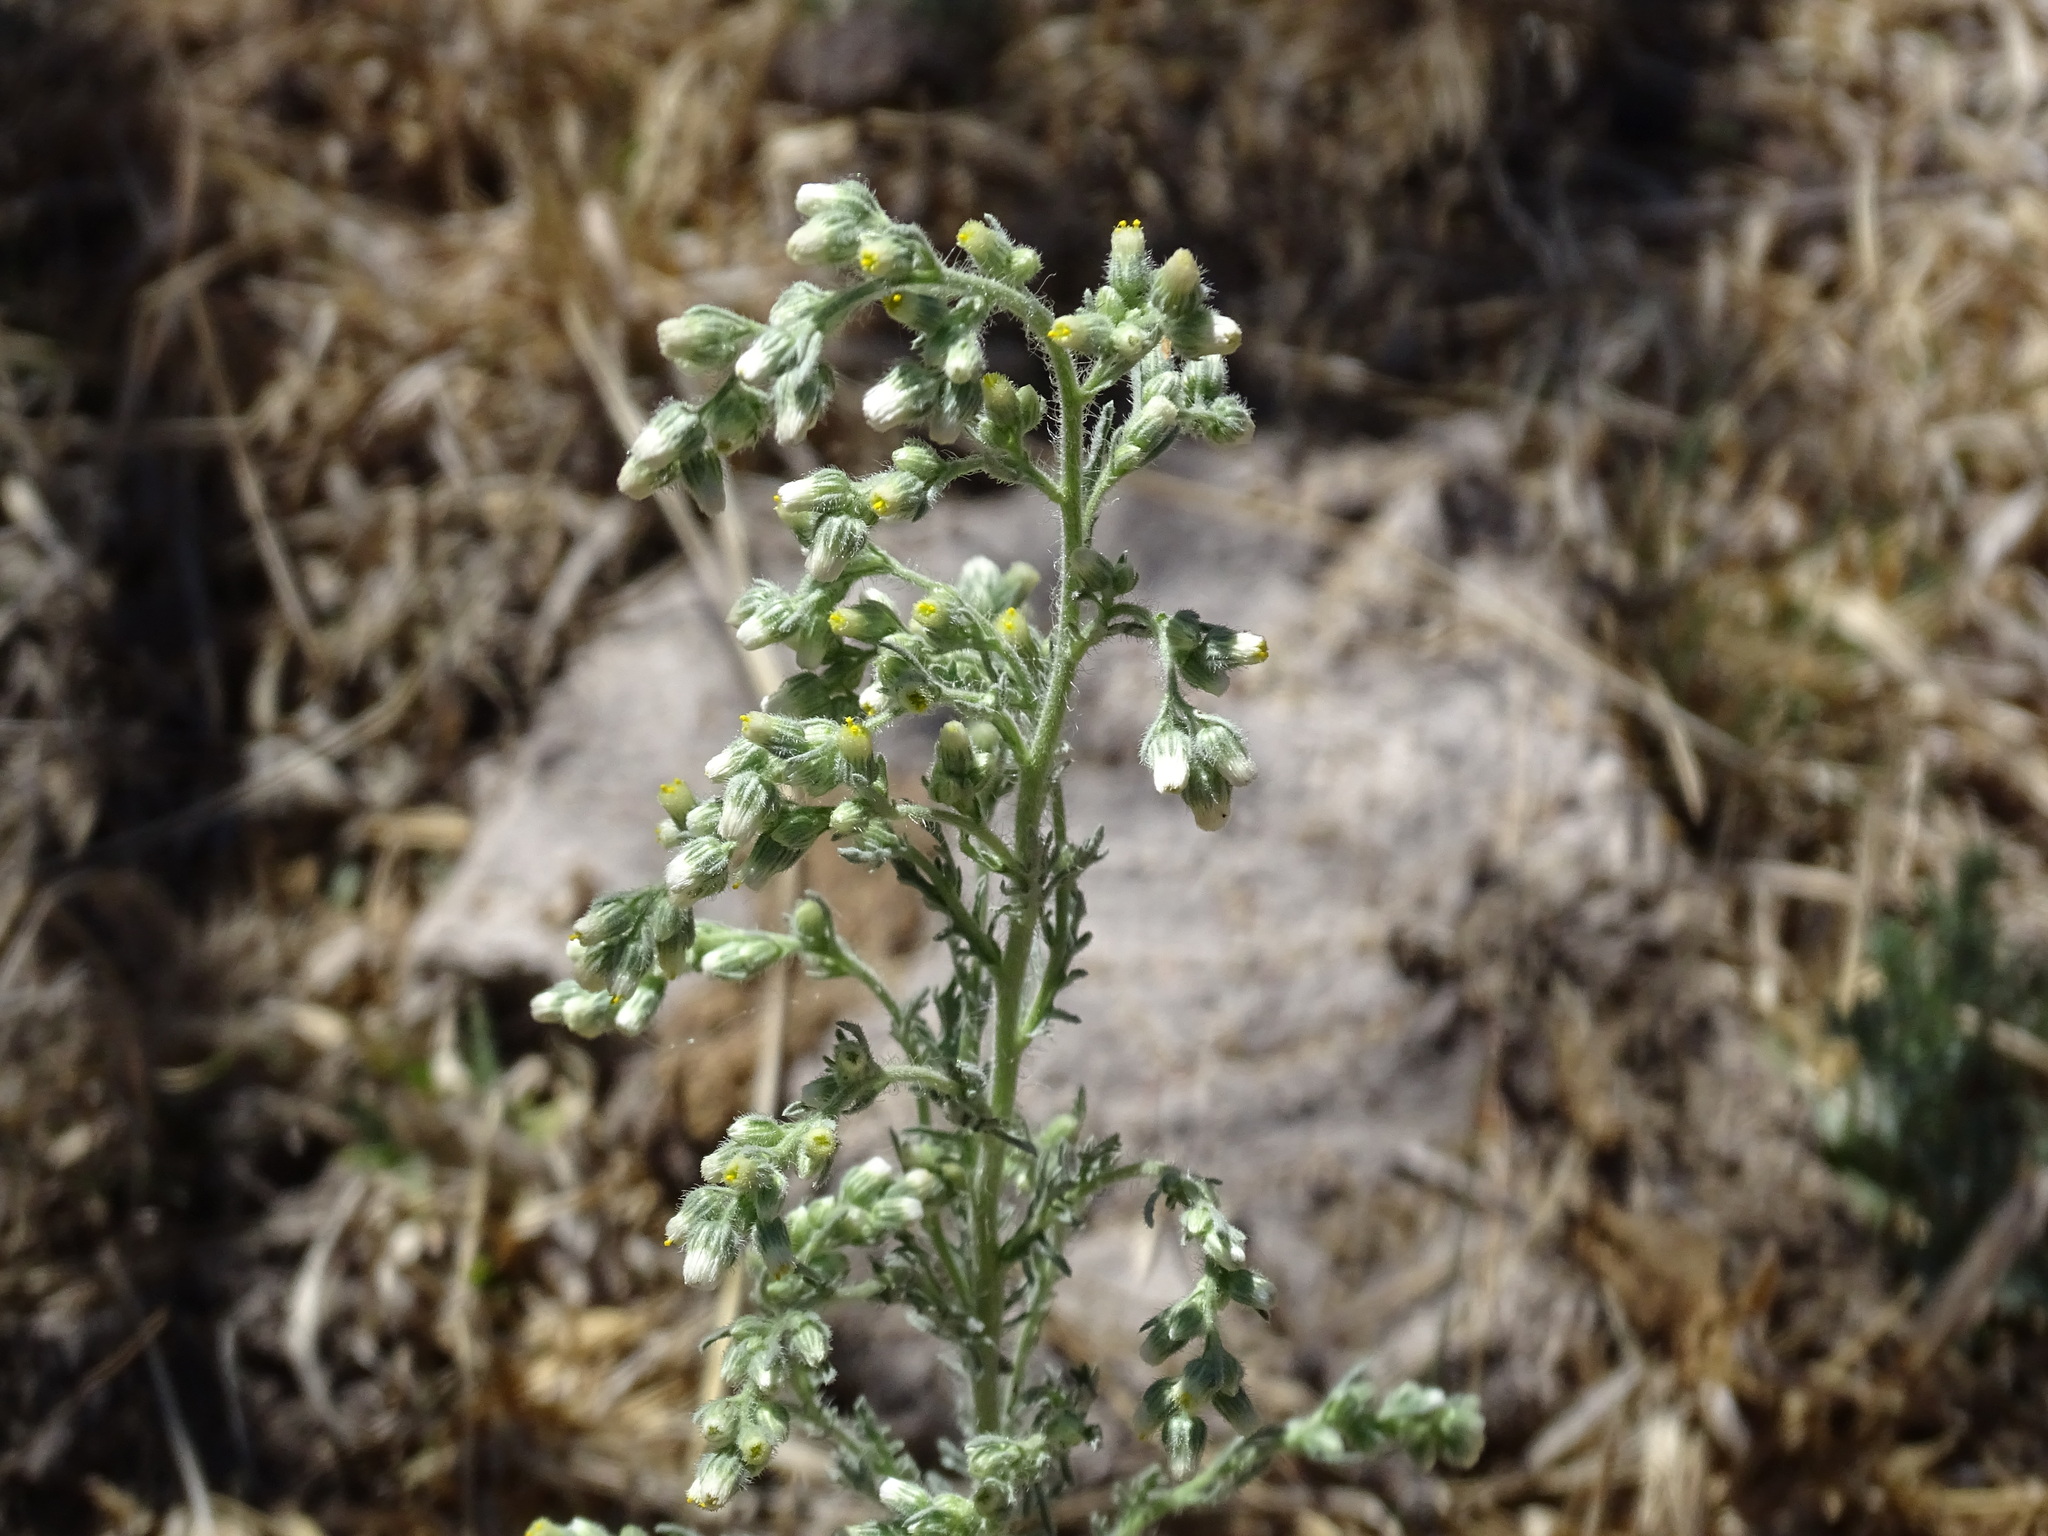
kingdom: Plantae
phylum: Tracheophyta
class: Magnoliopsida
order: Asterales
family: Asteraceae
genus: Laennecia
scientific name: Laennecia sophiifolia
